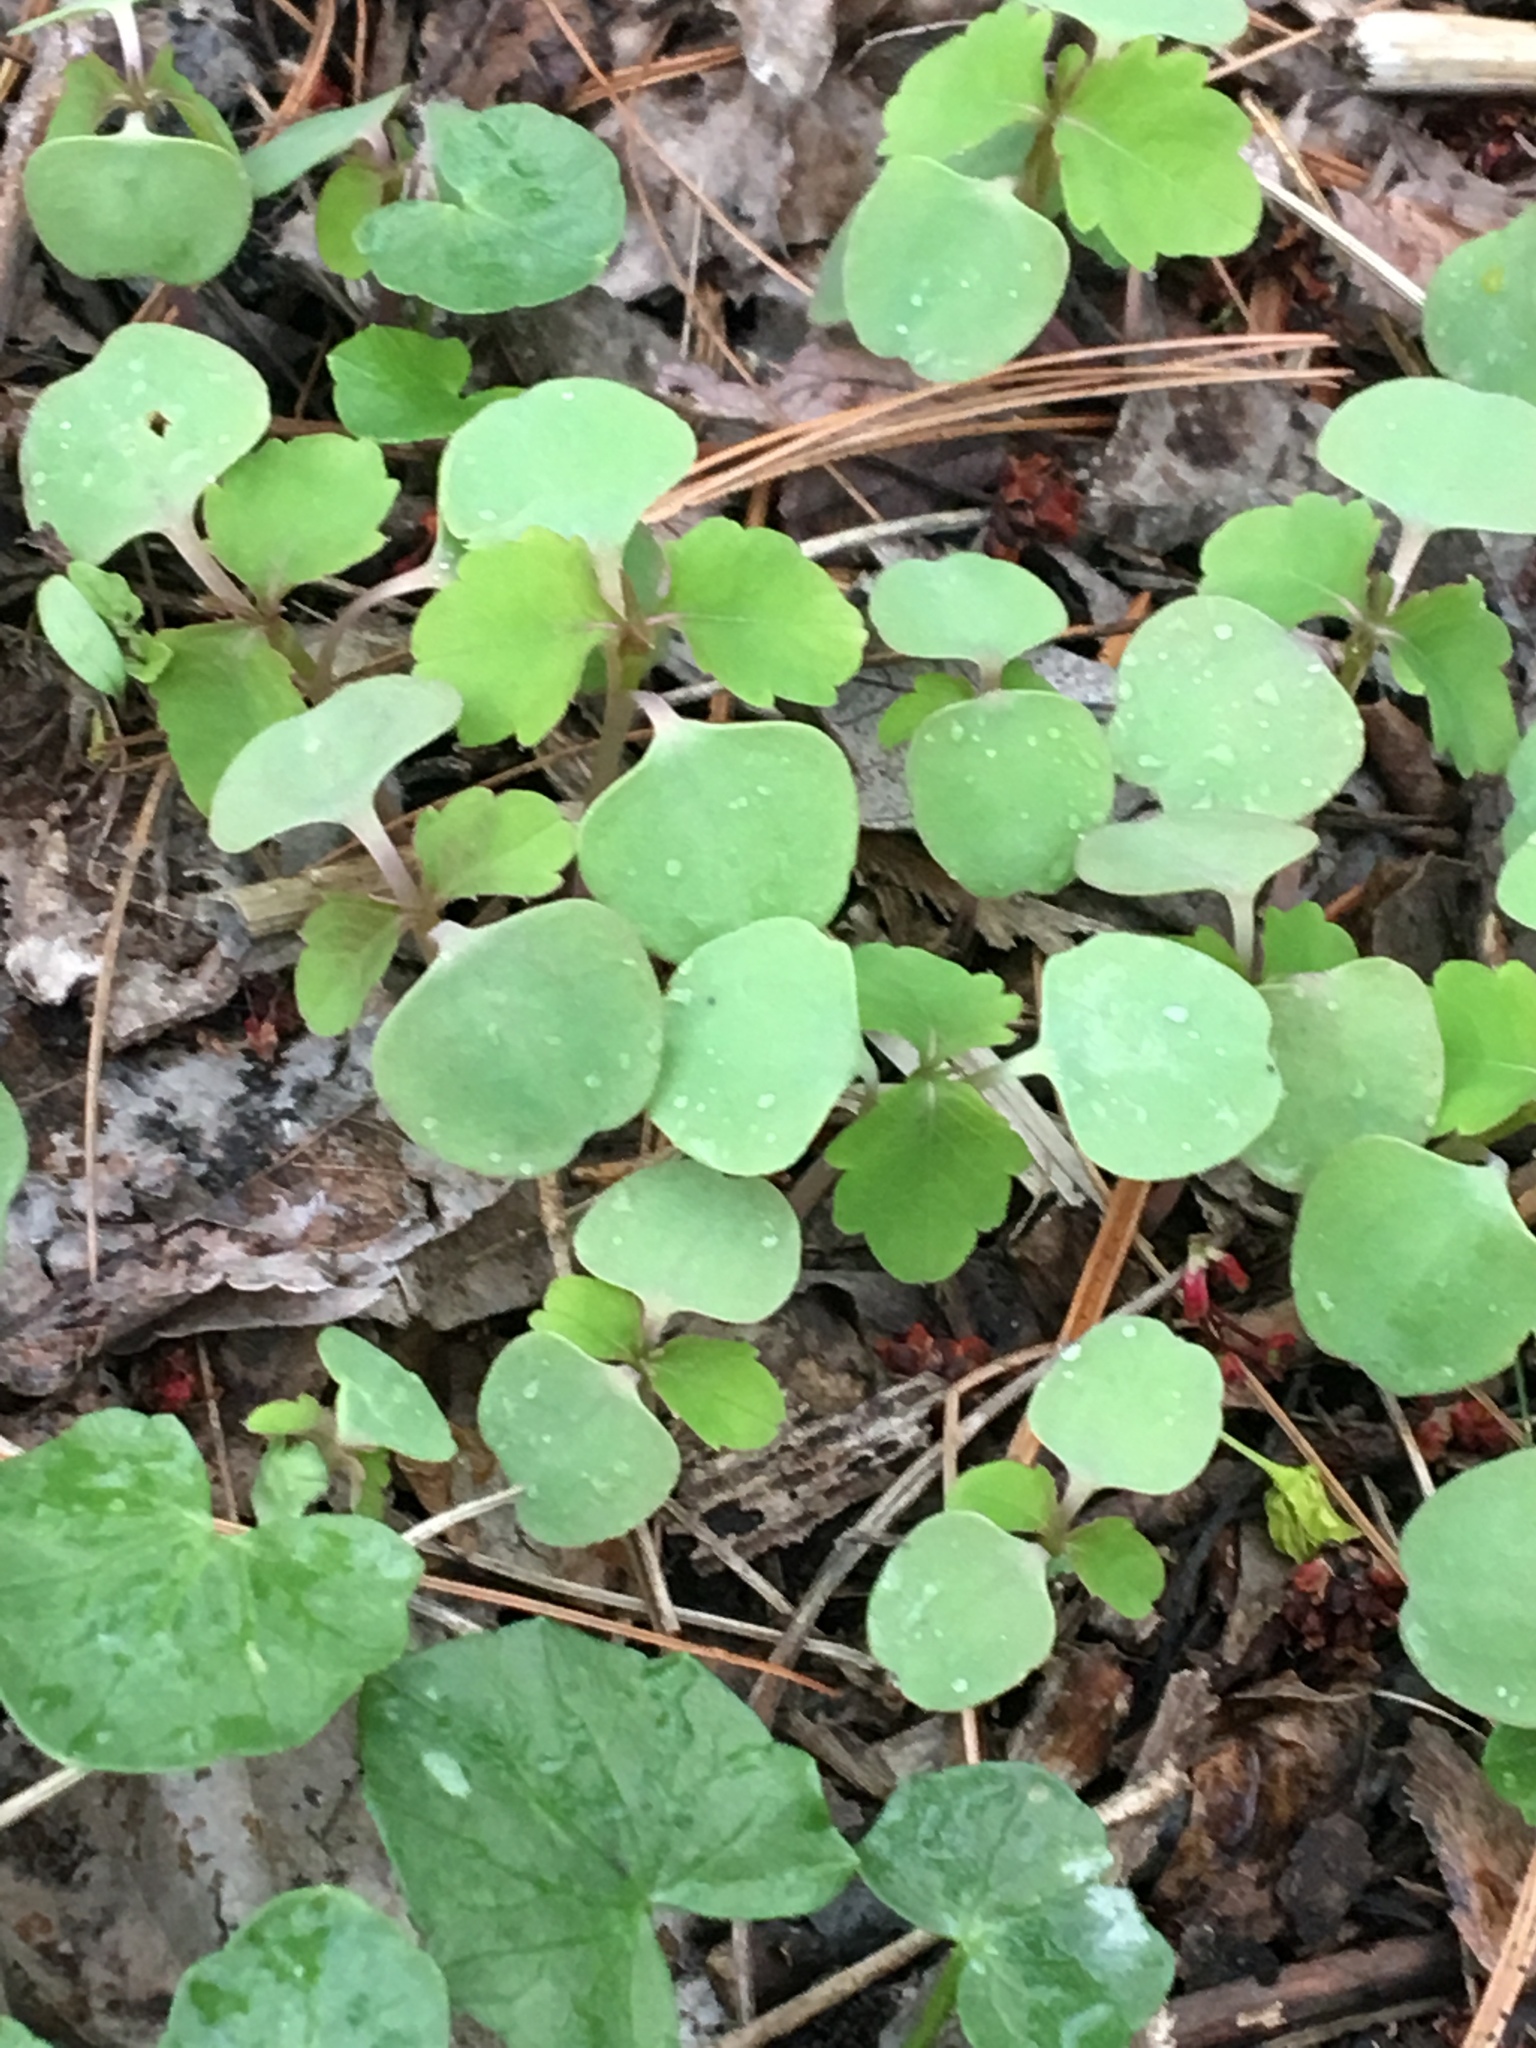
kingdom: Plantae
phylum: Tracheophyta
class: Magnoliopsida
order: Ericales
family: Balsaminaceae
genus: Impatiens
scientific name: Impatiens capensis
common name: Orange balsam
